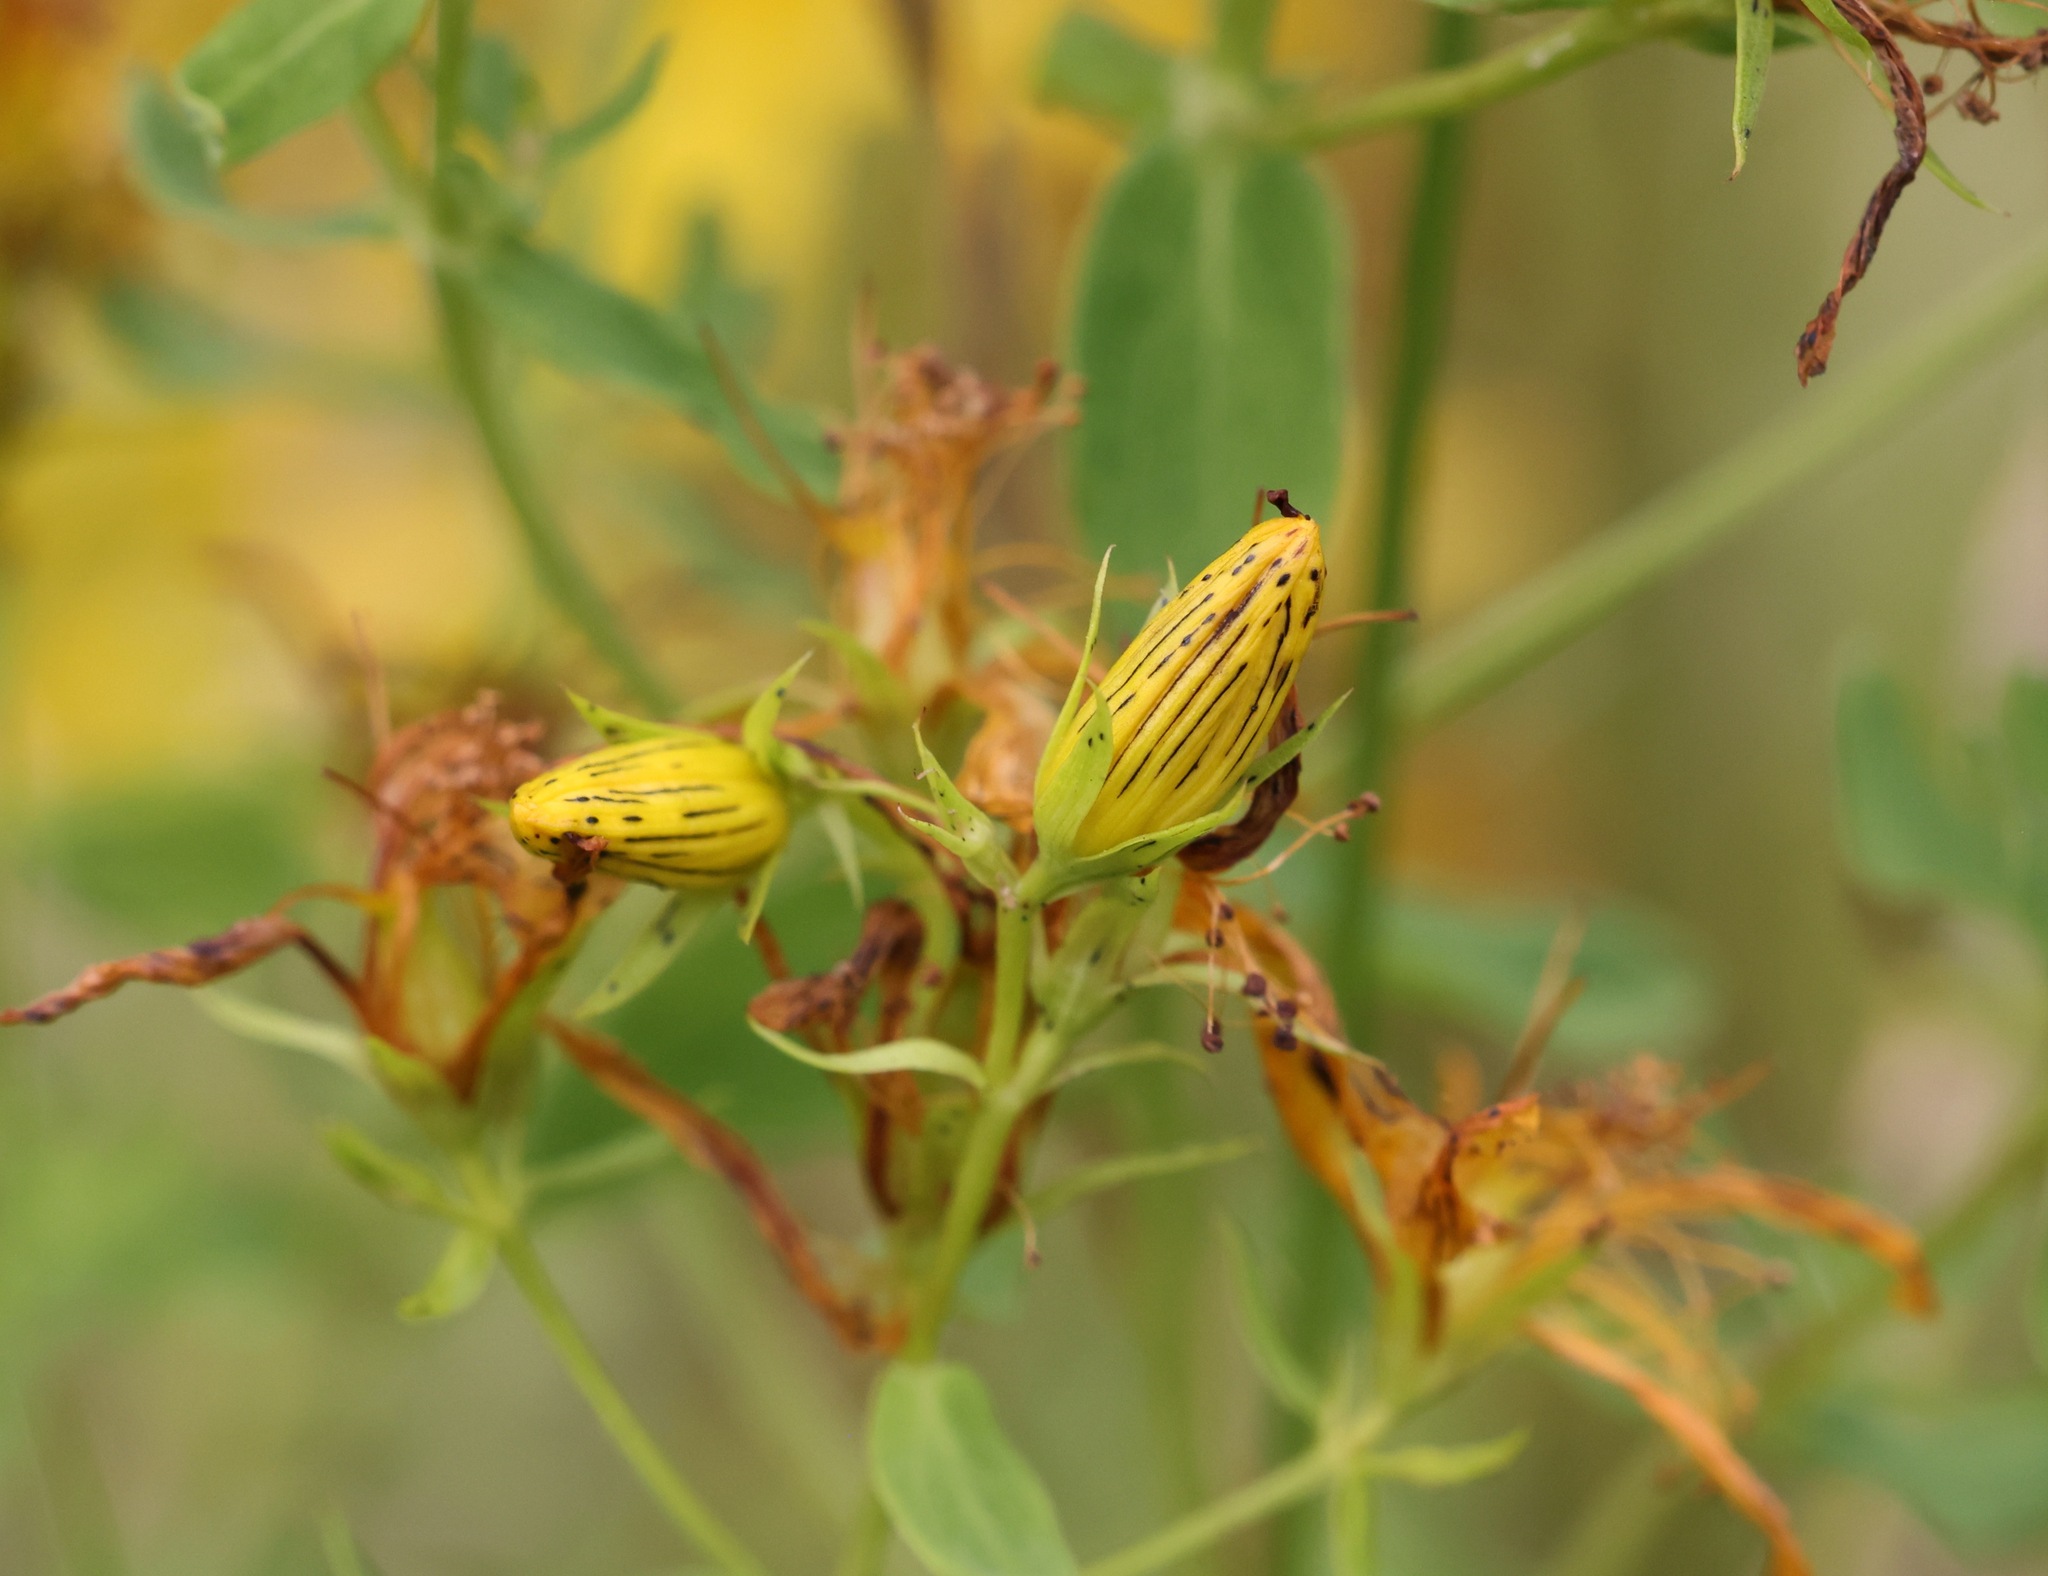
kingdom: Plantae
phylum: Tracheophyta
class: Magnoliopsida
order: Malpighiales
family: Hypericaceae
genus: Hypericum
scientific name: Hypericum perforatum
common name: Common st. johnswort
